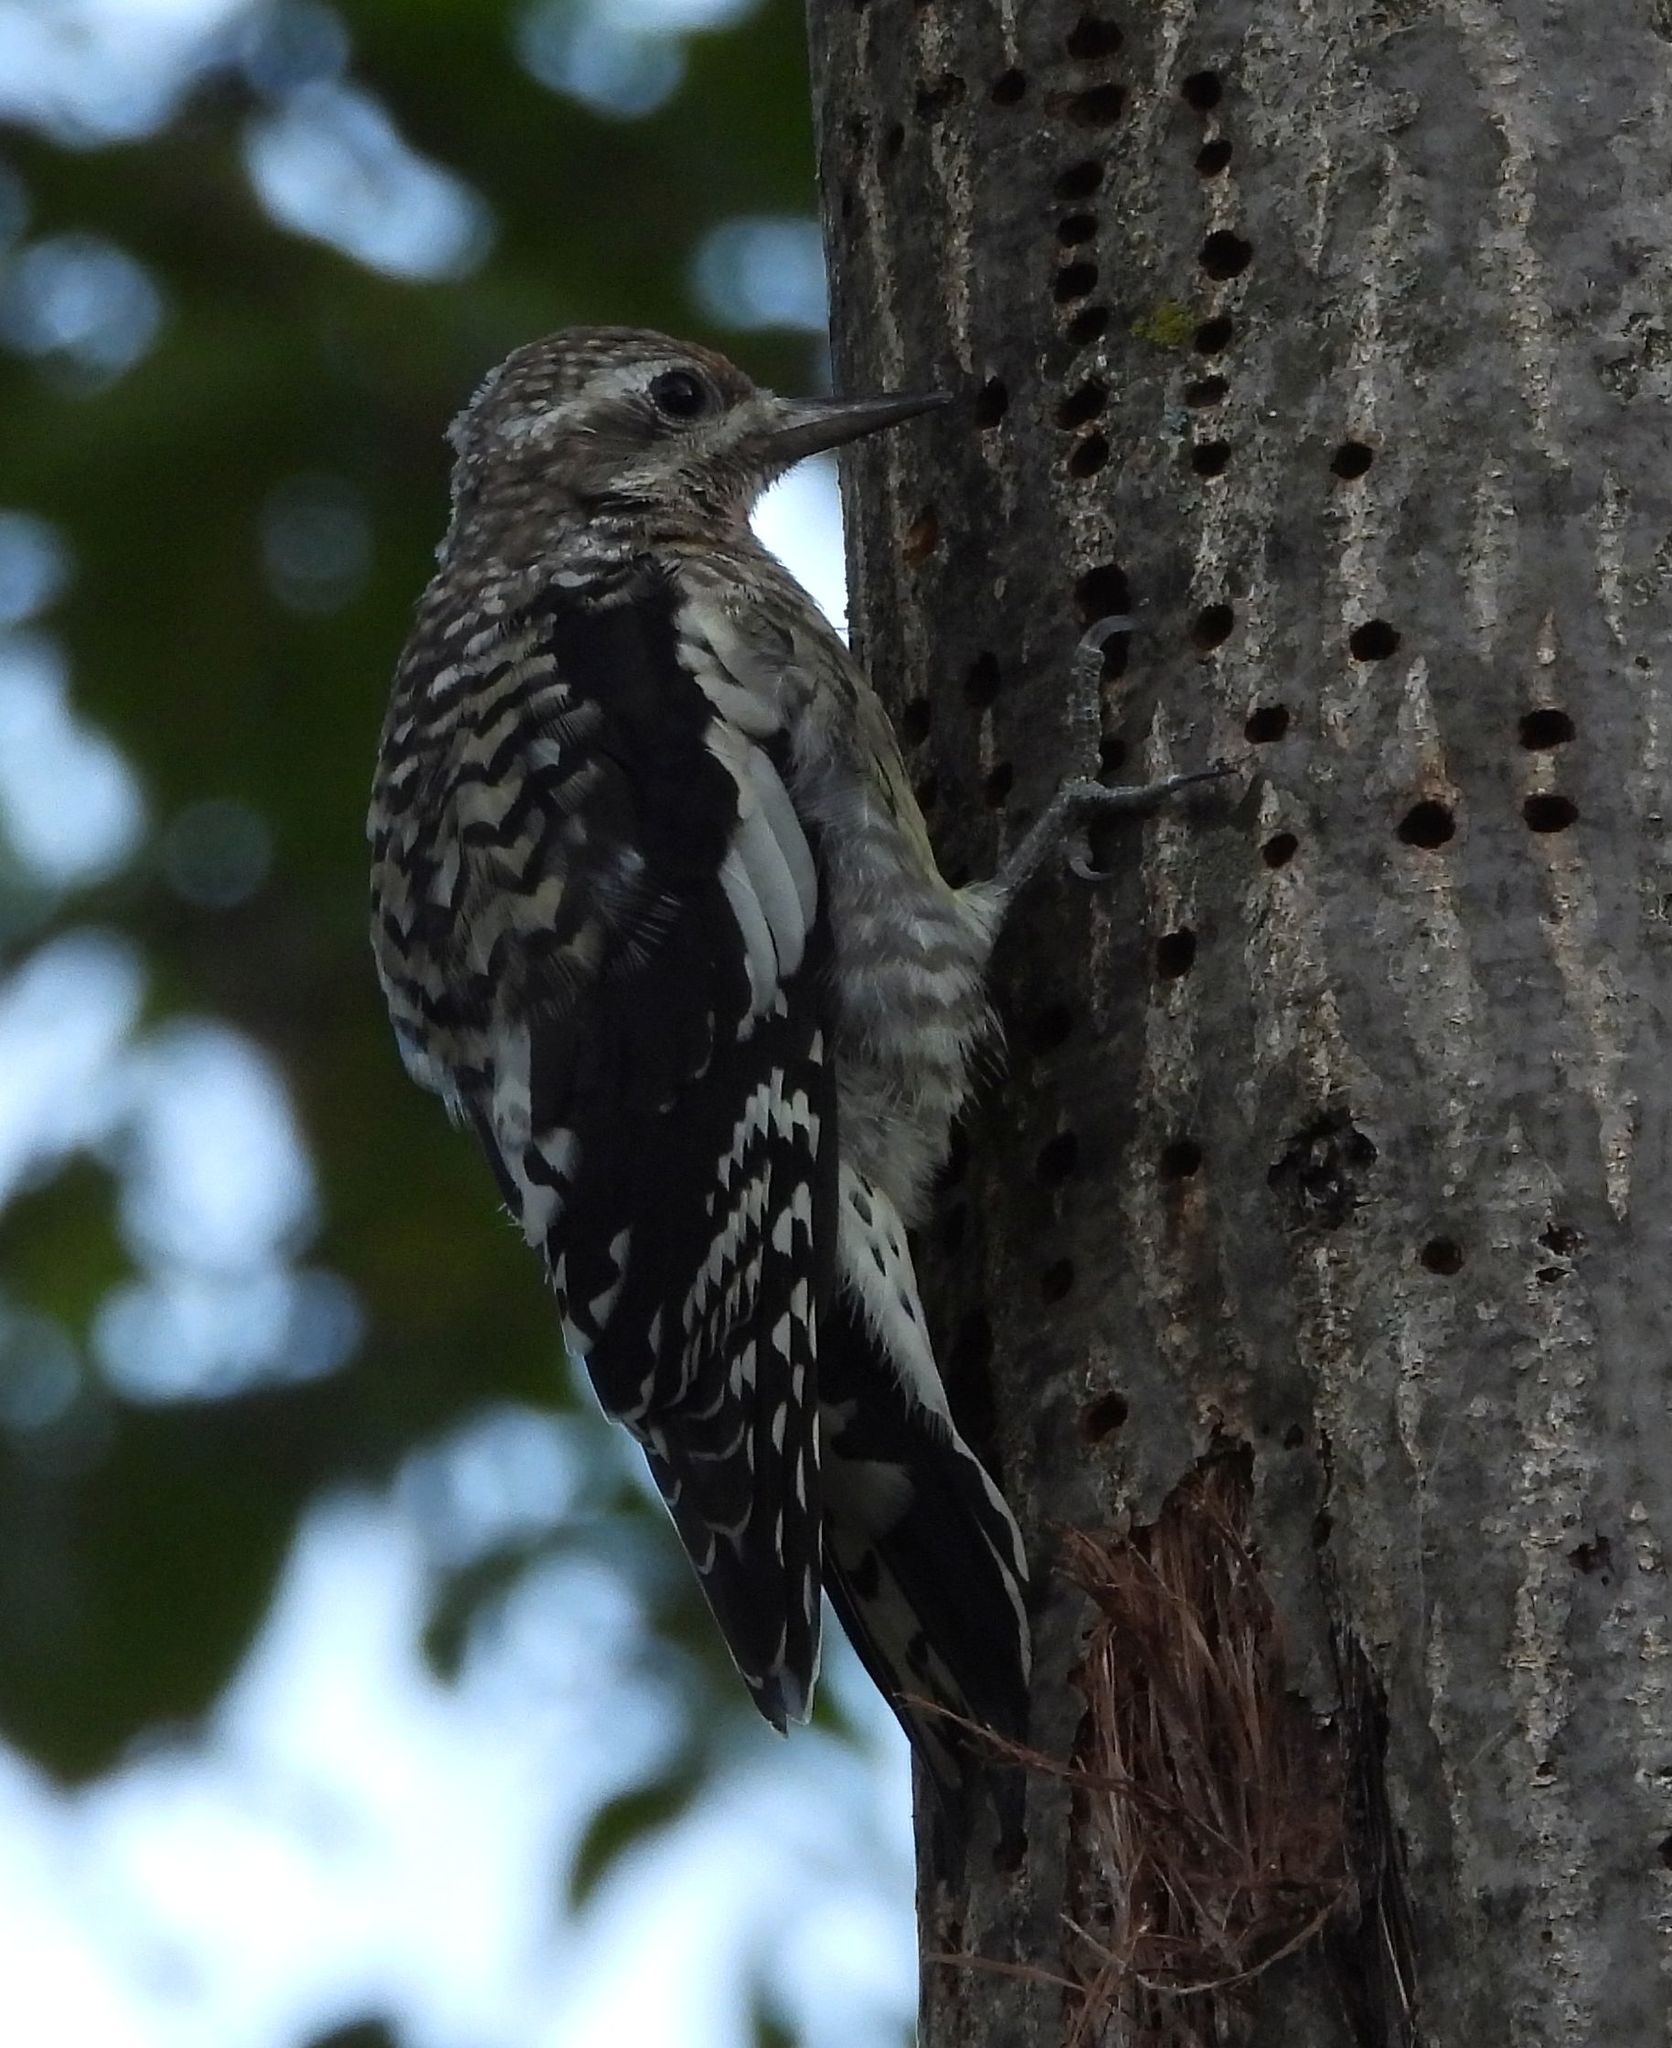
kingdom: Animalia
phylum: Chordata
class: Aves
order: Piciformes
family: Picidae
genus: Sphyrapicus
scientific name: Sphyrapicus varius
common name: Yellow-bellied sapsucker
